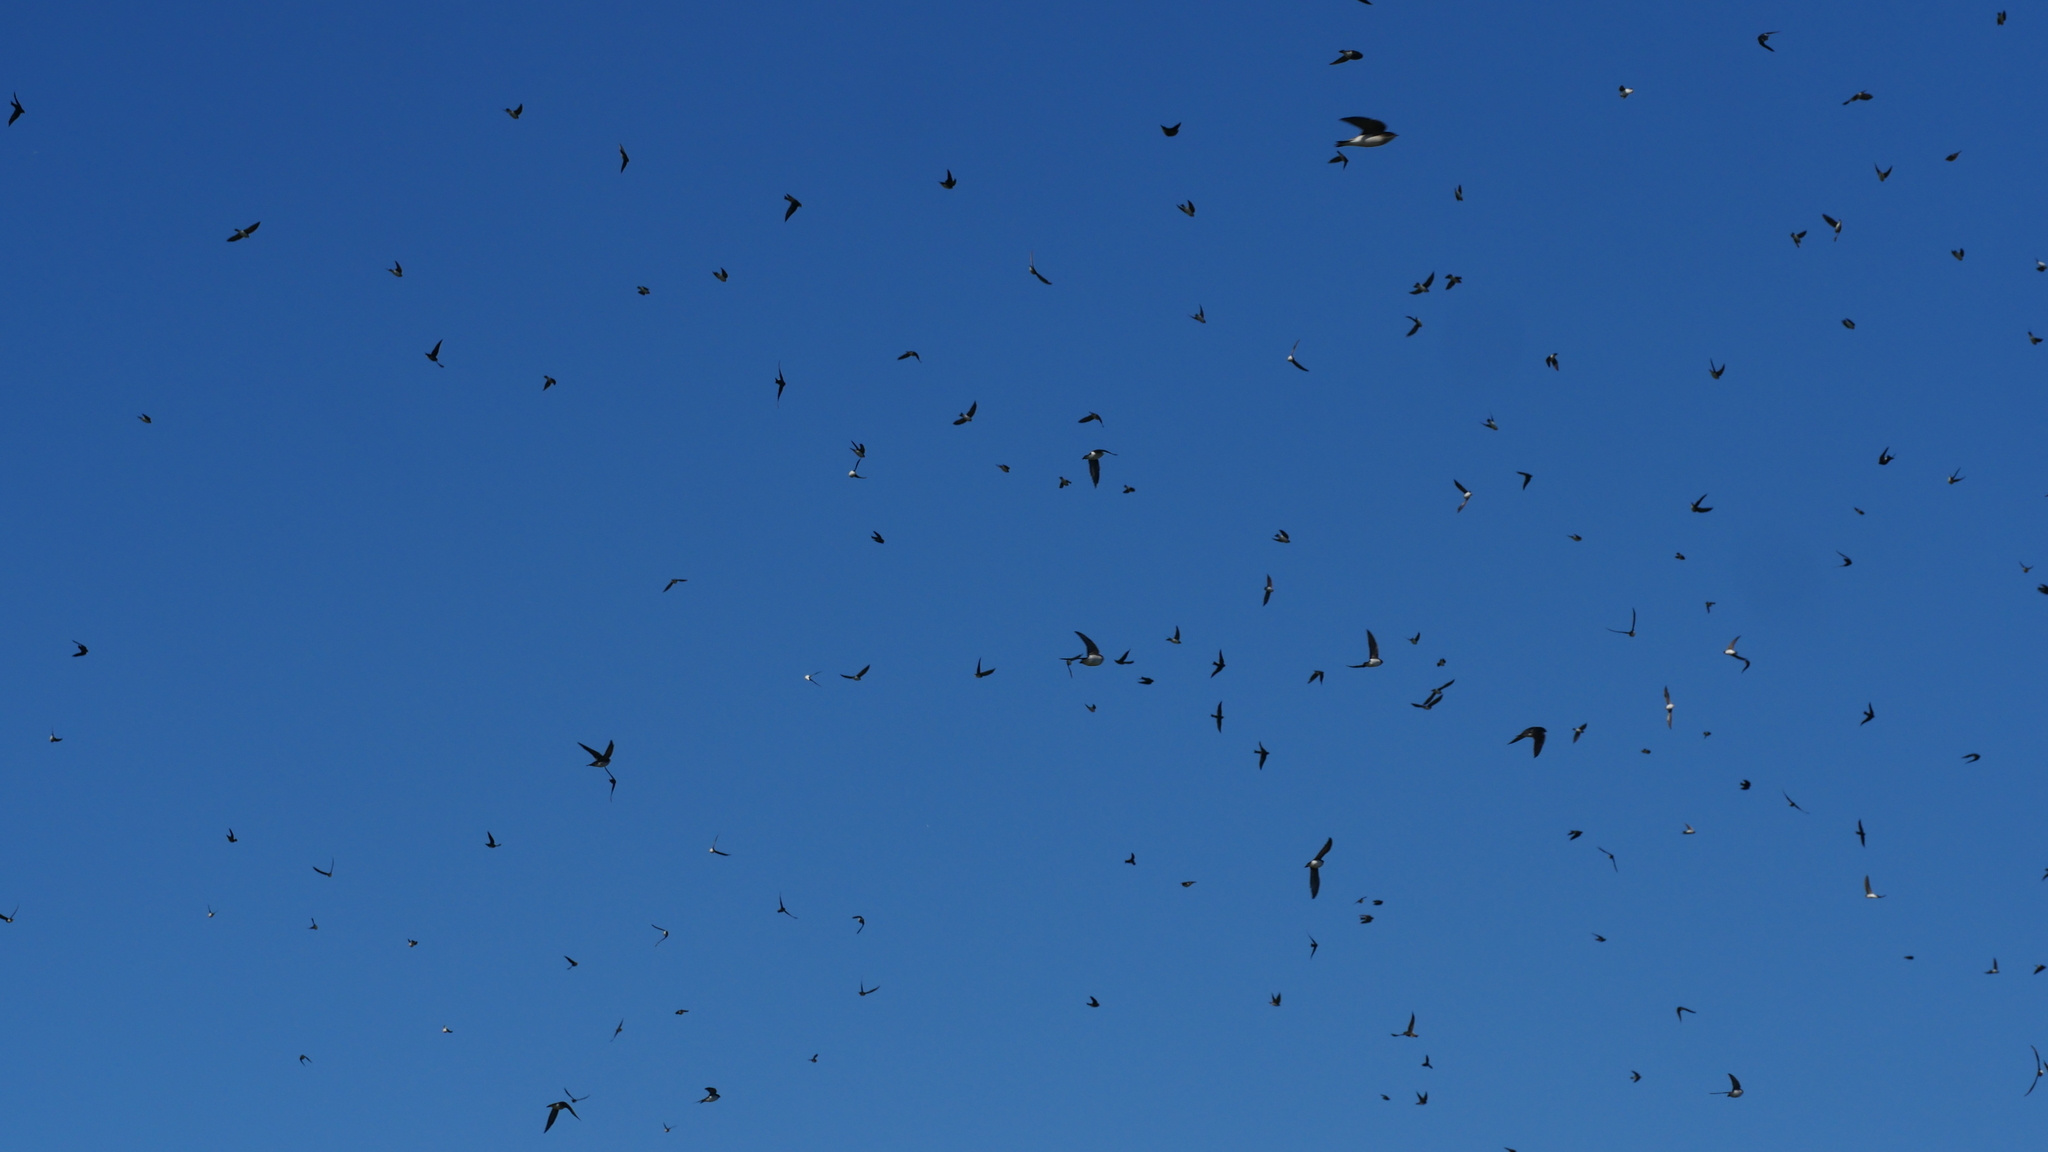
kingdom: Animalia
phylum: Chordata
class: Aves
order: Passeriformes
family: Hirundinidae
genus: Tachycineta
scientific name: Tachycineta bicolor
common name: Tree swallow
